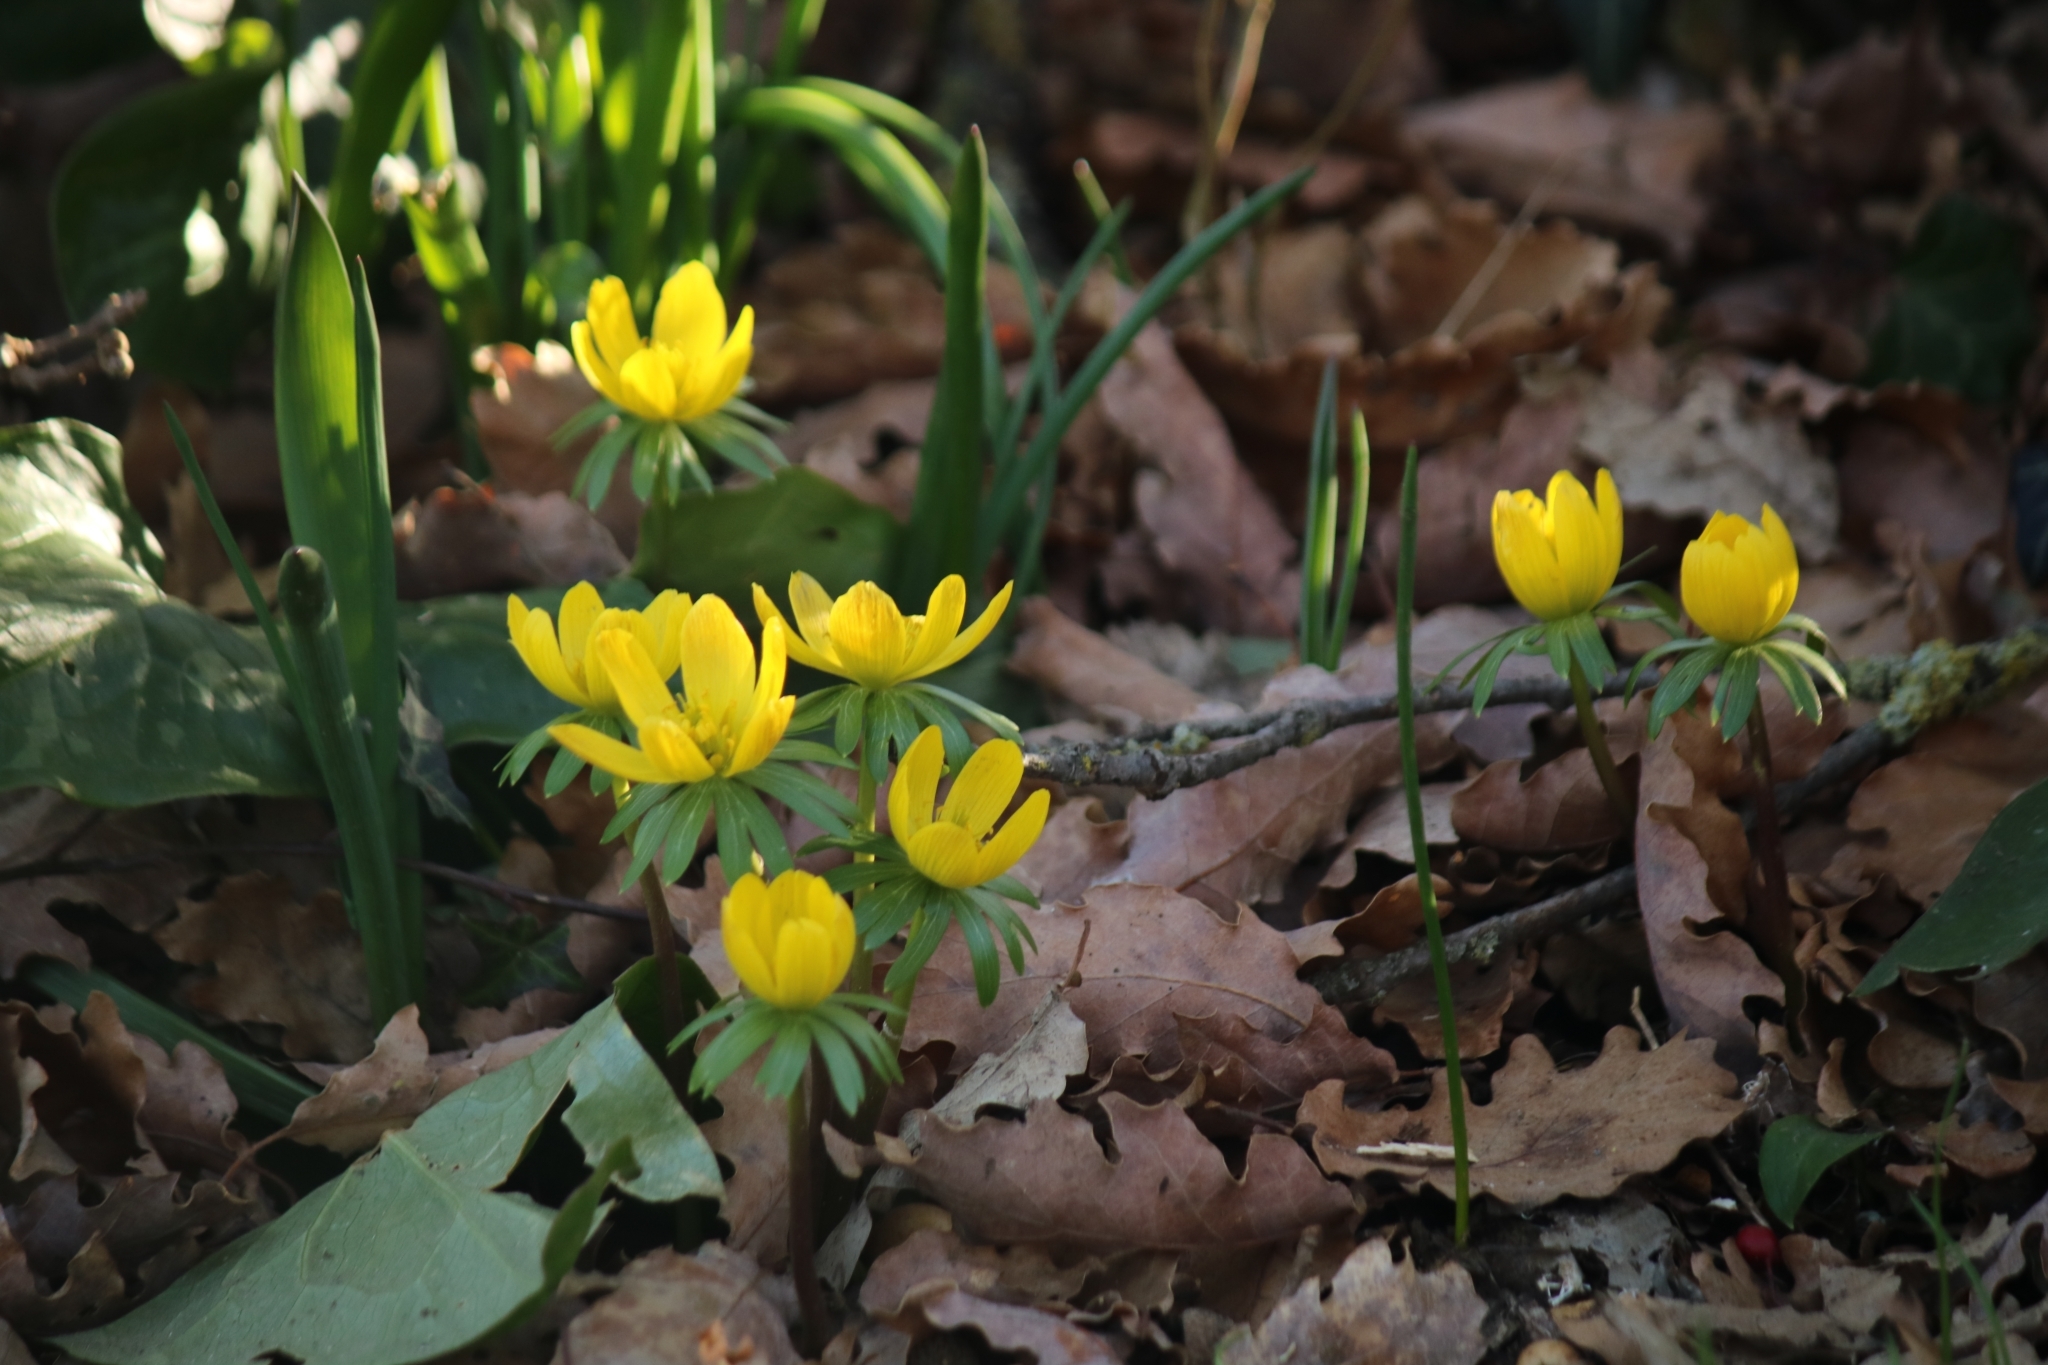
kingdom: Plantae
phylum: Tracheophyta
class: Magnoliopsida
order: Ranunculales
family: Ranunculaceae
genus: Eranthis
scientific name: Eranthis hyemalis
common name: Winter aconite
